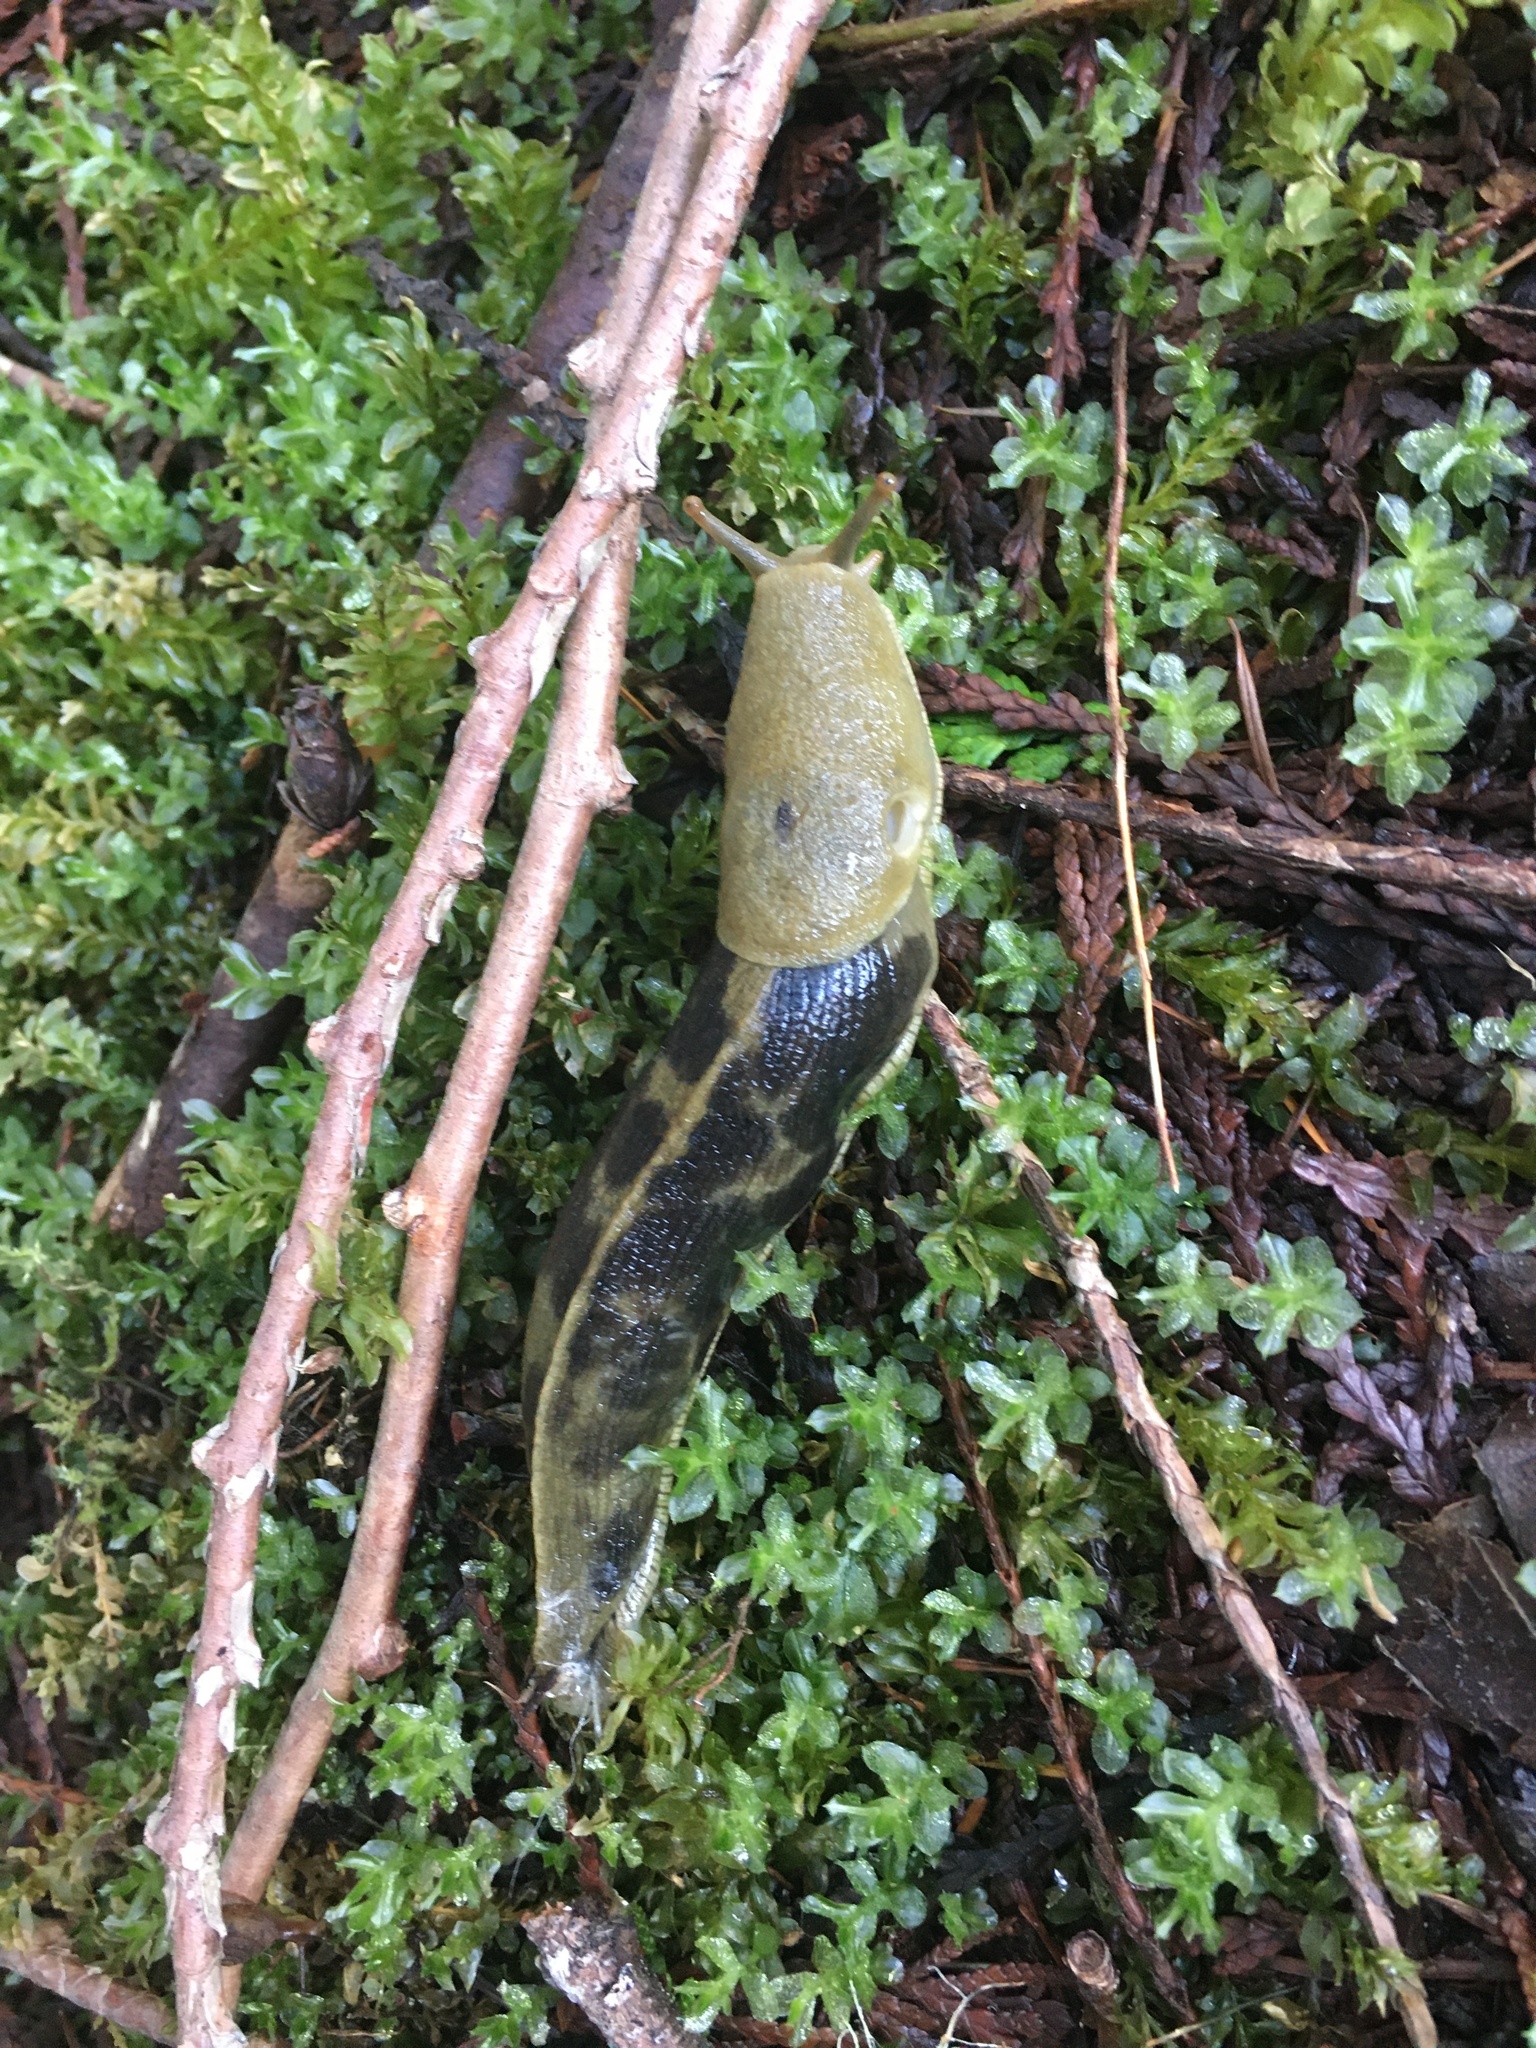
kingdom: Animalia
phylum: Mollusca
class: Gastropoda
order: Stylommatophora
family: Ariolimacidae
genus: Ariolimax
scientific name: Ariolimax columbianus
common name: Pacific banana slug
